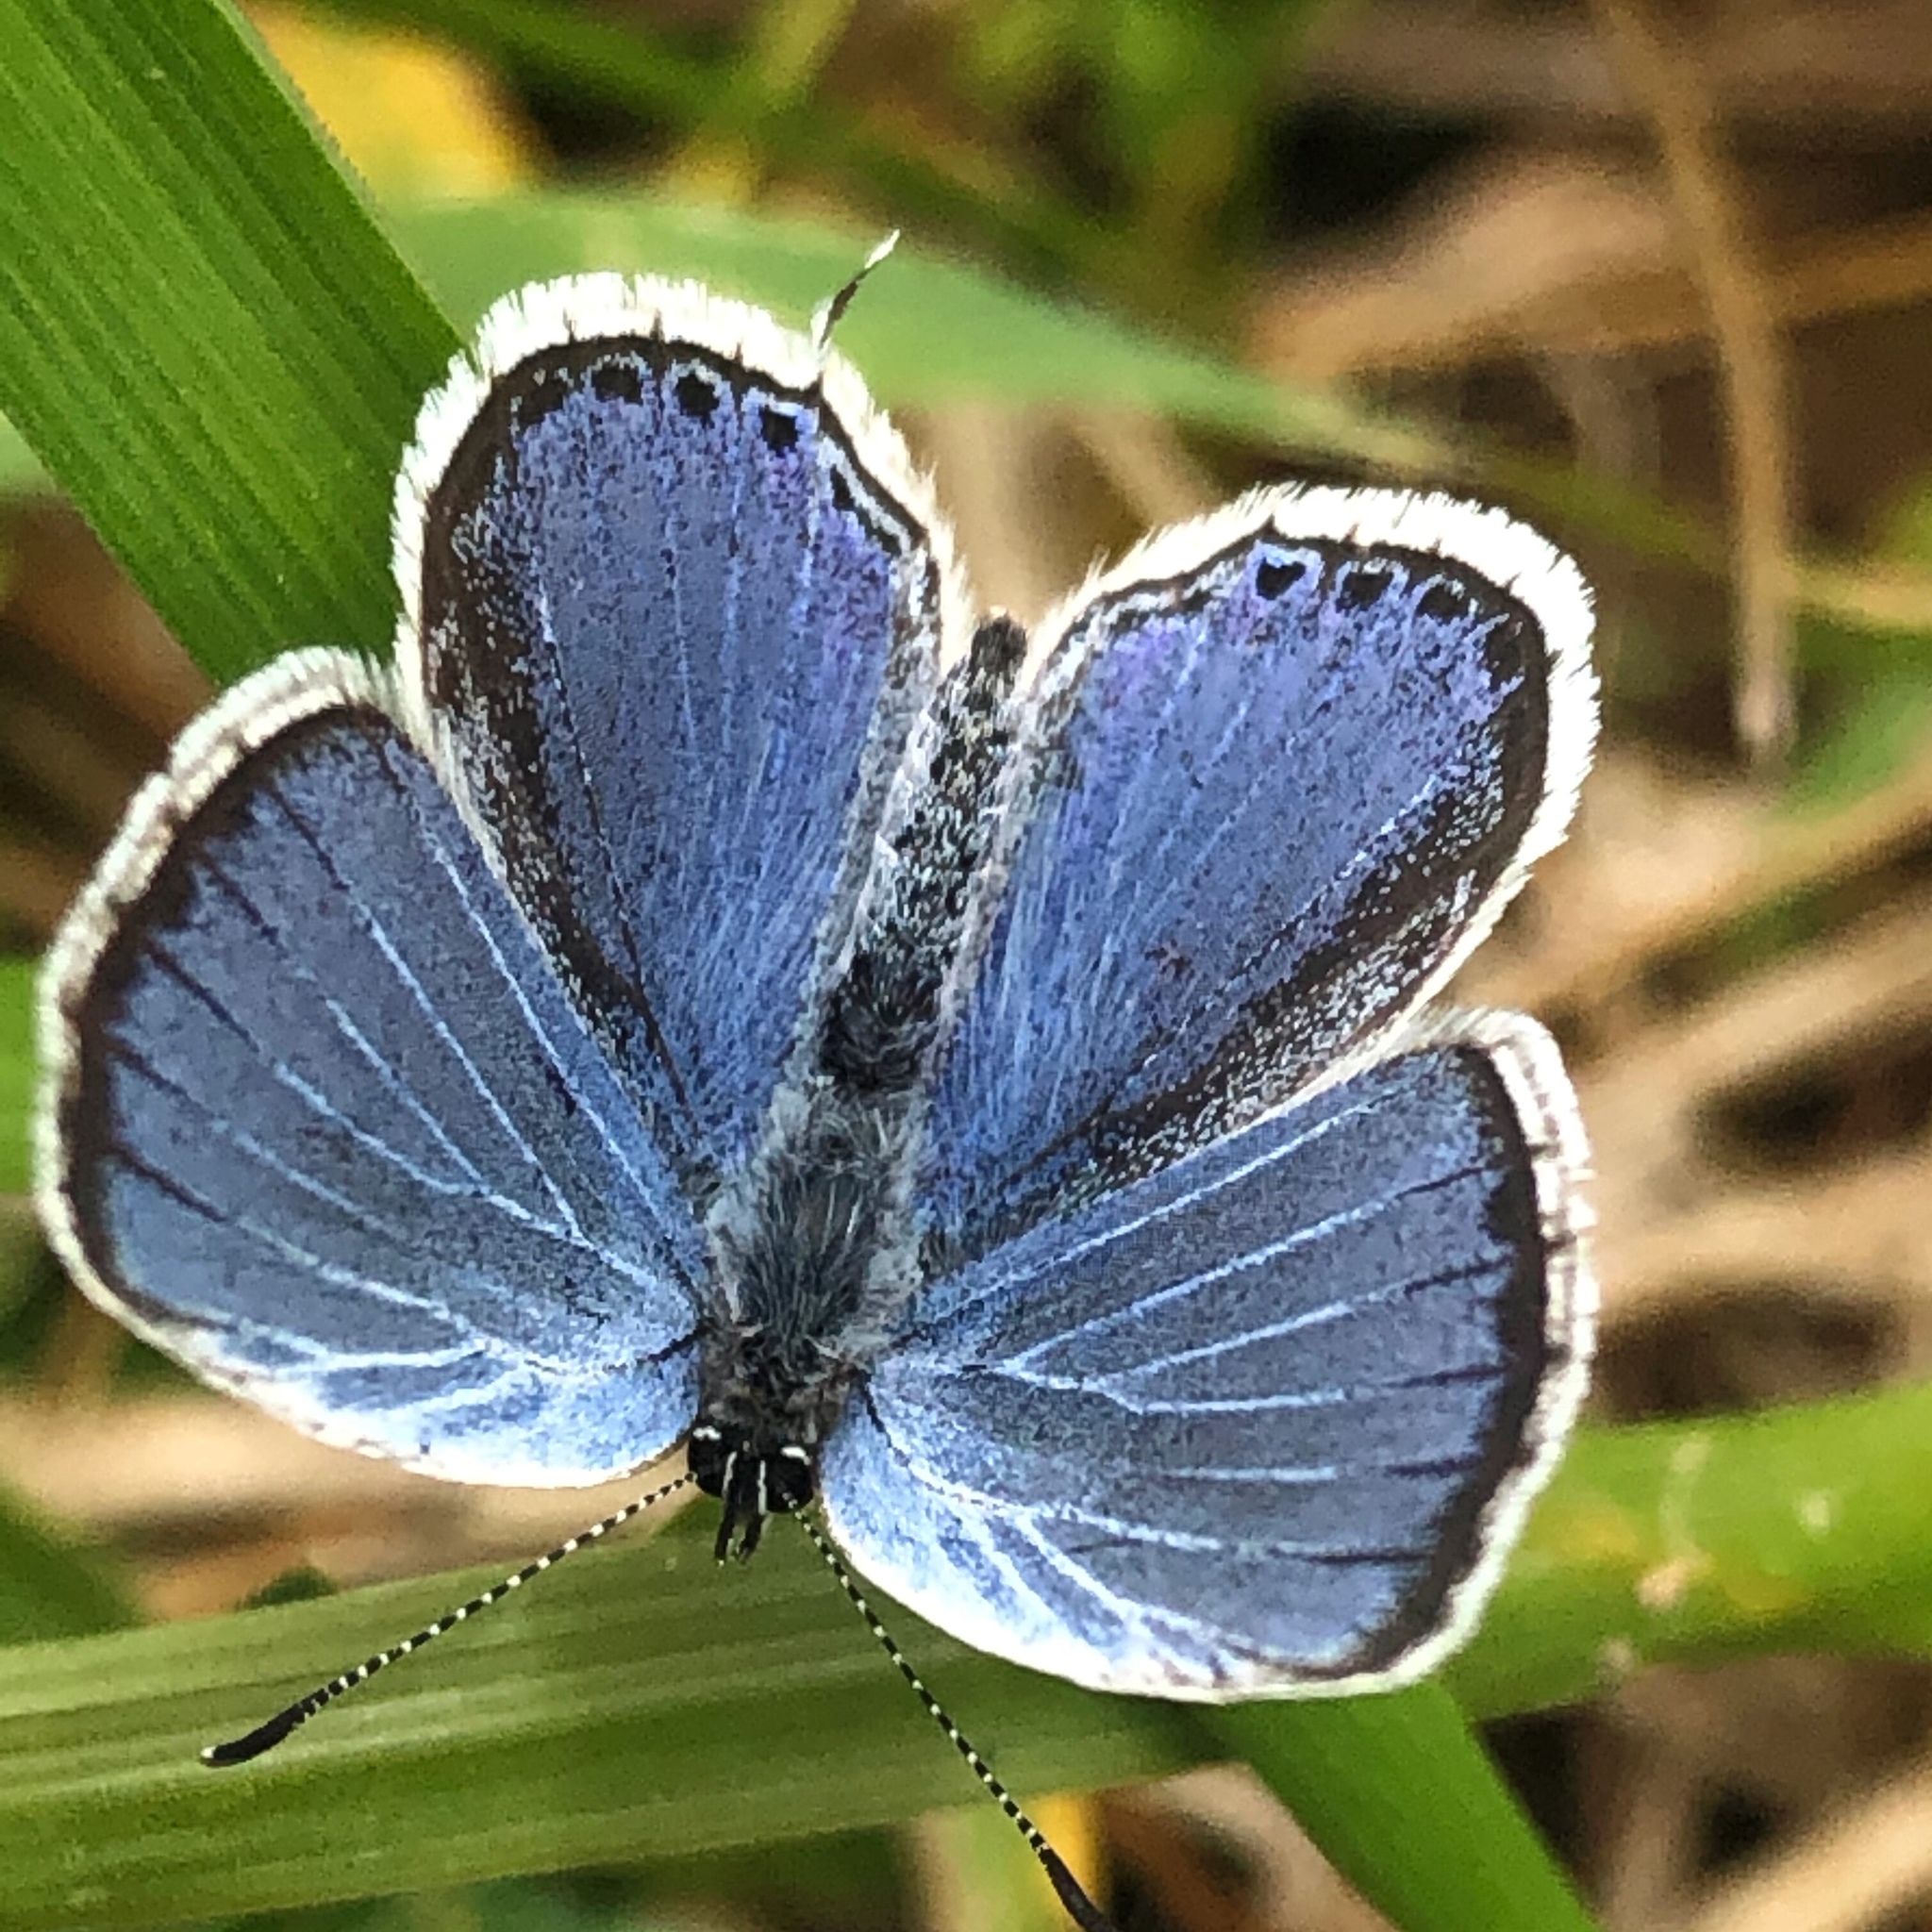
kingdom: Animalia
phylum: Arthropoda
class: Insecta
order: Lepidoptera
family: Lycaenidae
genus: Elkalyce
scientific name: Elkalyce comyntas
